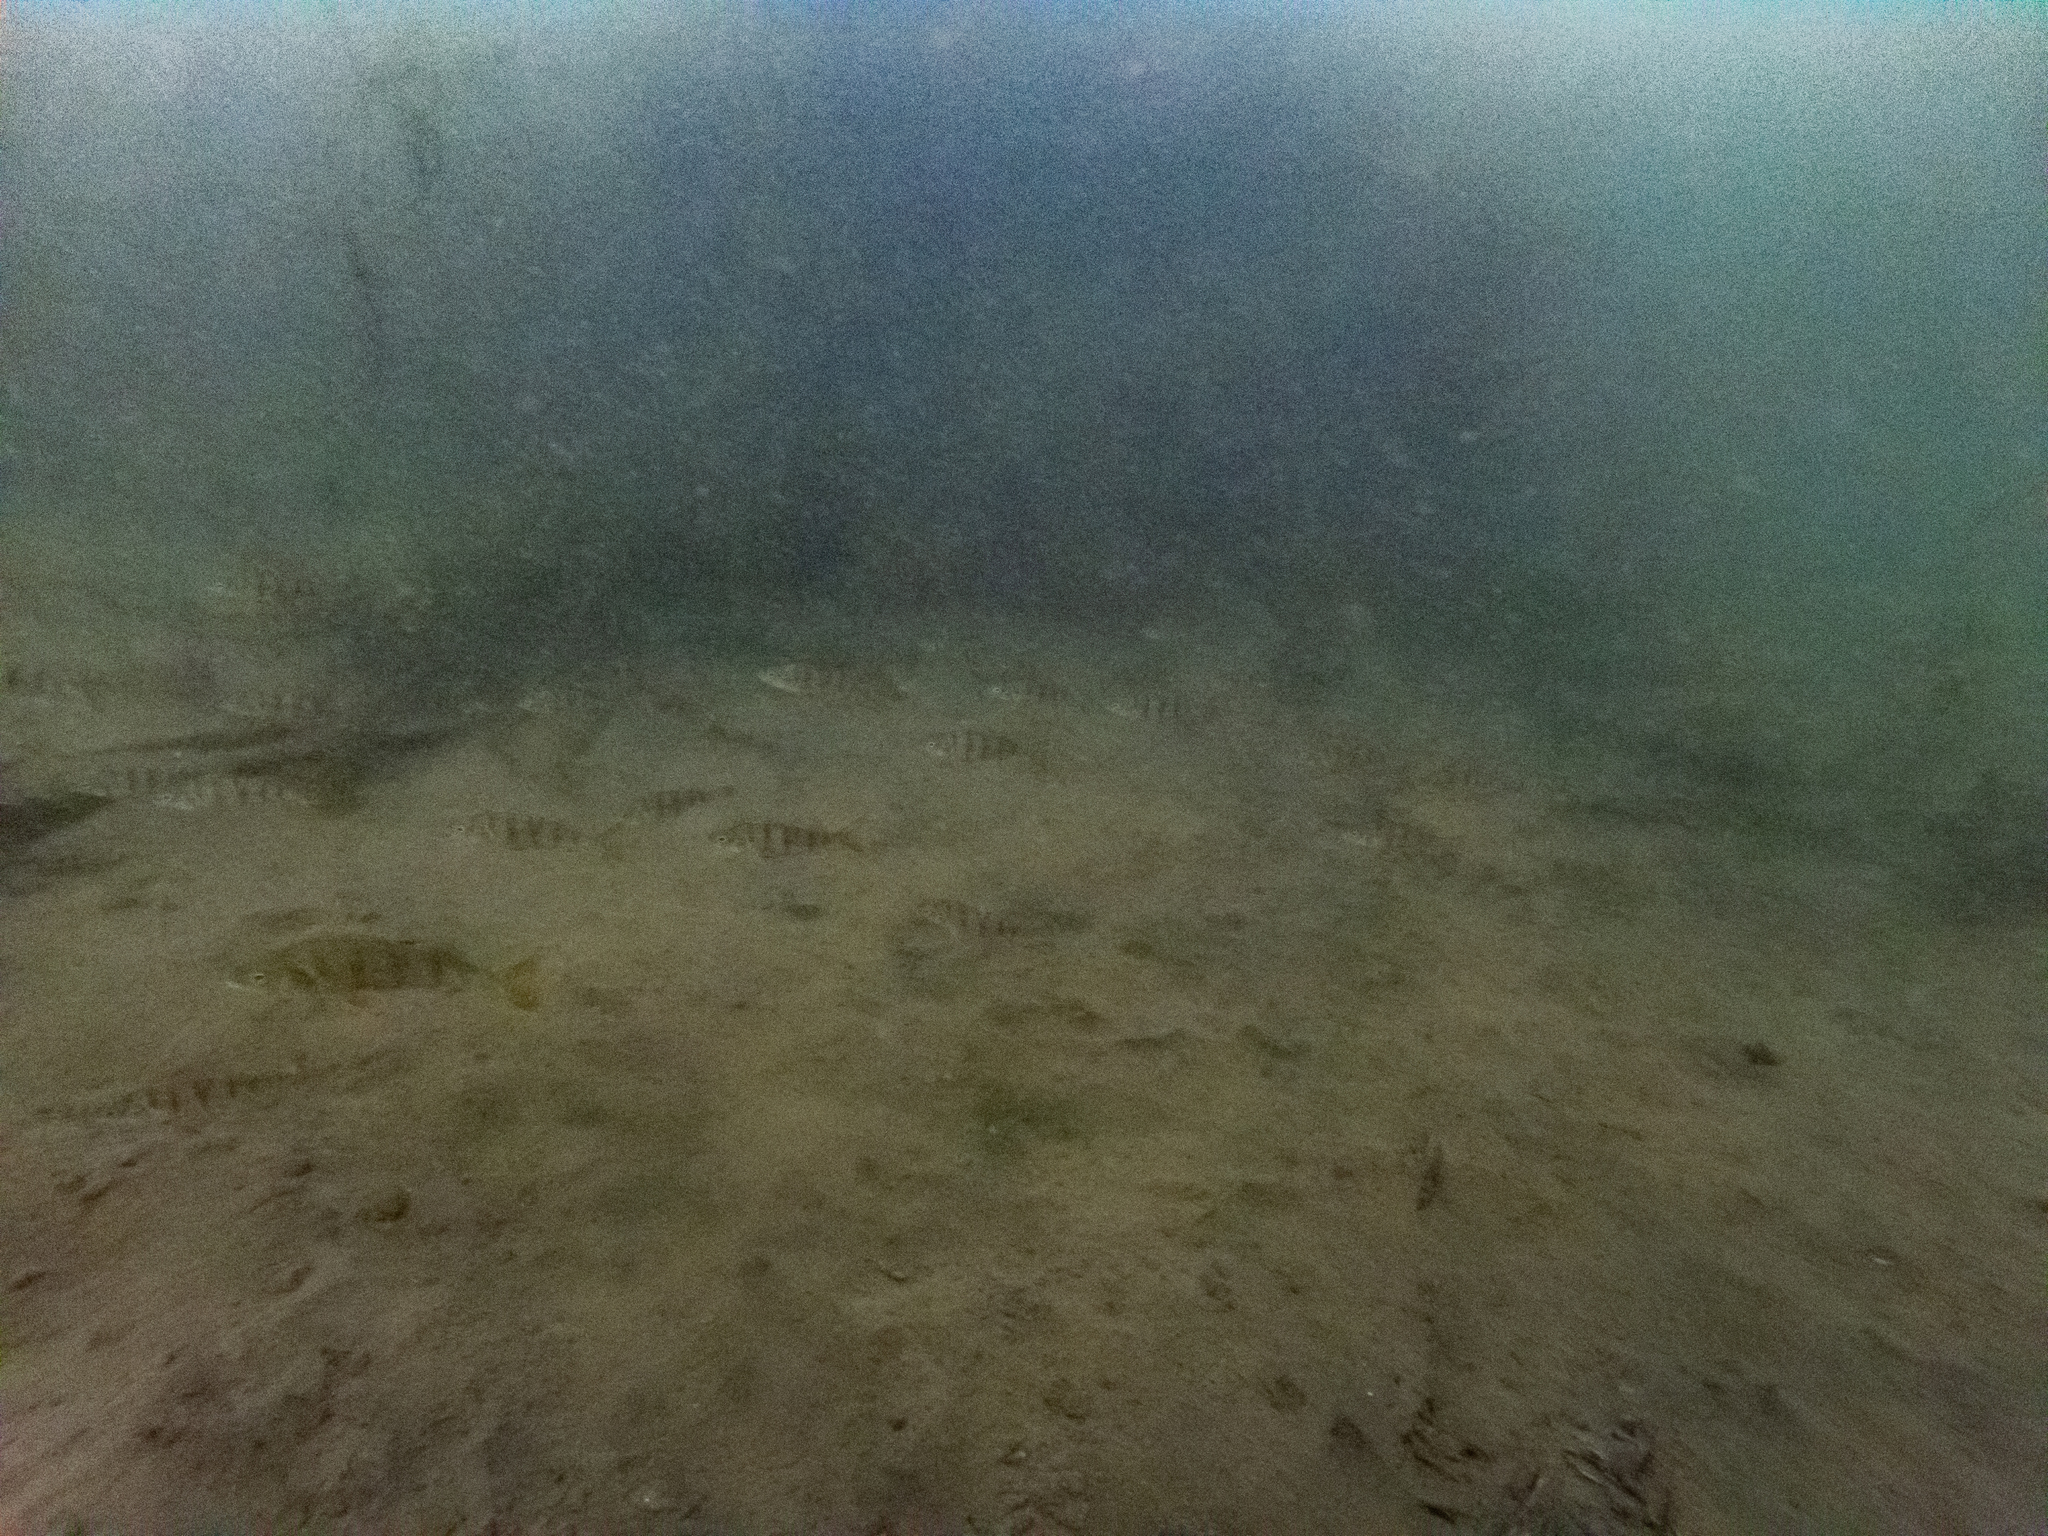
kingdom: Animalia
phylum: Chordata
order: Perciformes
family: Percidae
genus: Perca
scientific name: Perca fluviatilis
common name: Perch
